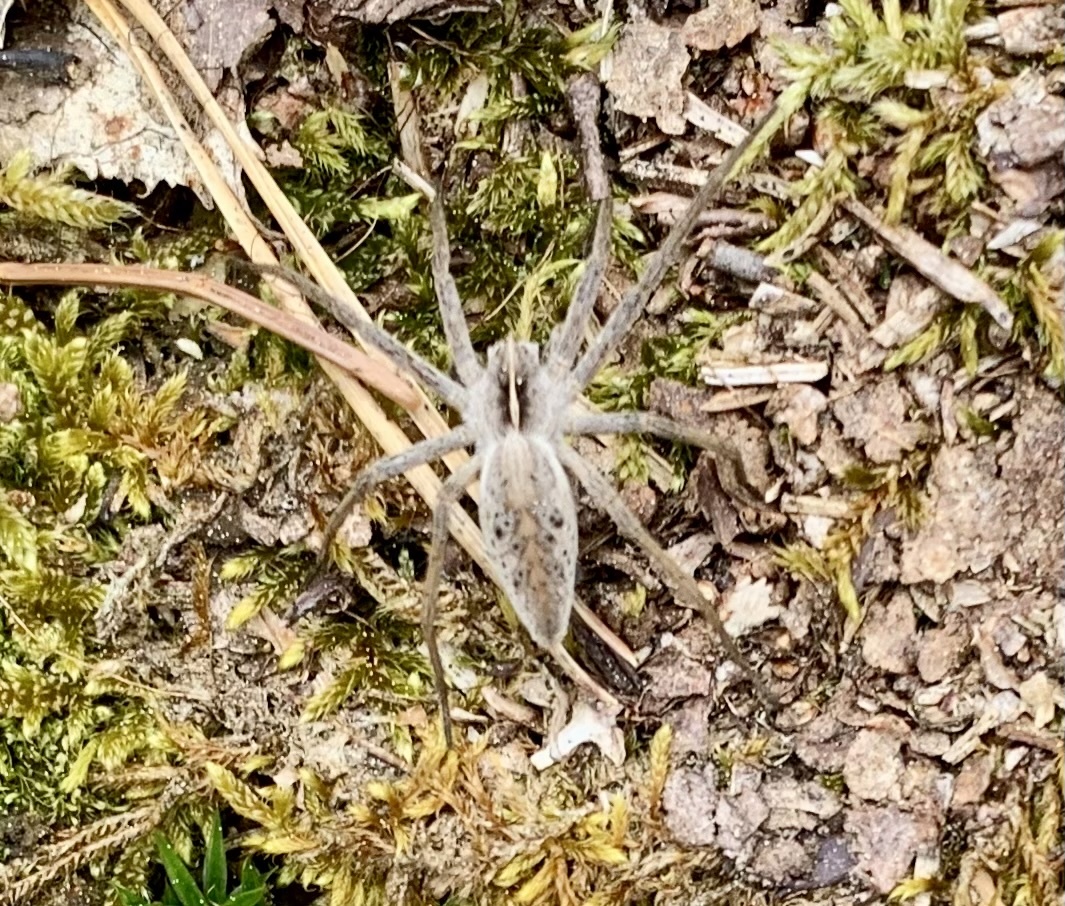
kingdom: Animalia
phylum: Arthropoda
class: Arachnida
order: Araneae
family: Pisauridae
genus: Pisaura
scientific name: Pisaura mirabilis
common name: Tent spider
